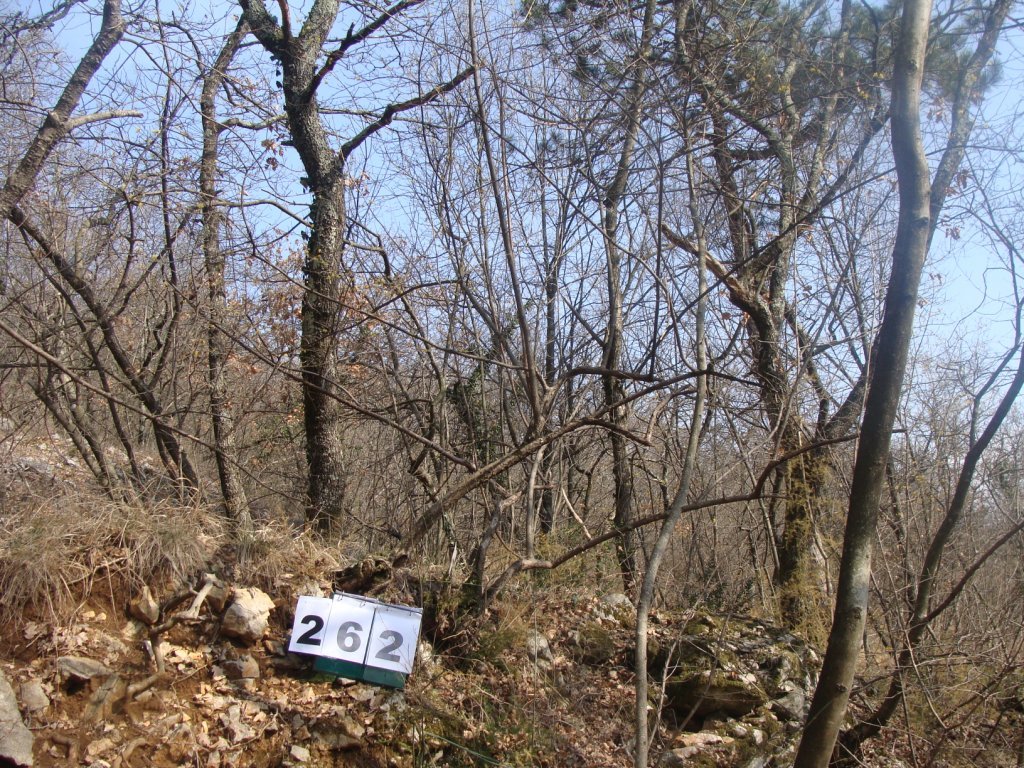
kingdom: Plantae
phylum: Tracheophyta
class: Magnoliopsida
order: Cornales
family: Cornaceae
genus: Cornus
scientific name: Cornus mas
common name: Cornelian-cherry
